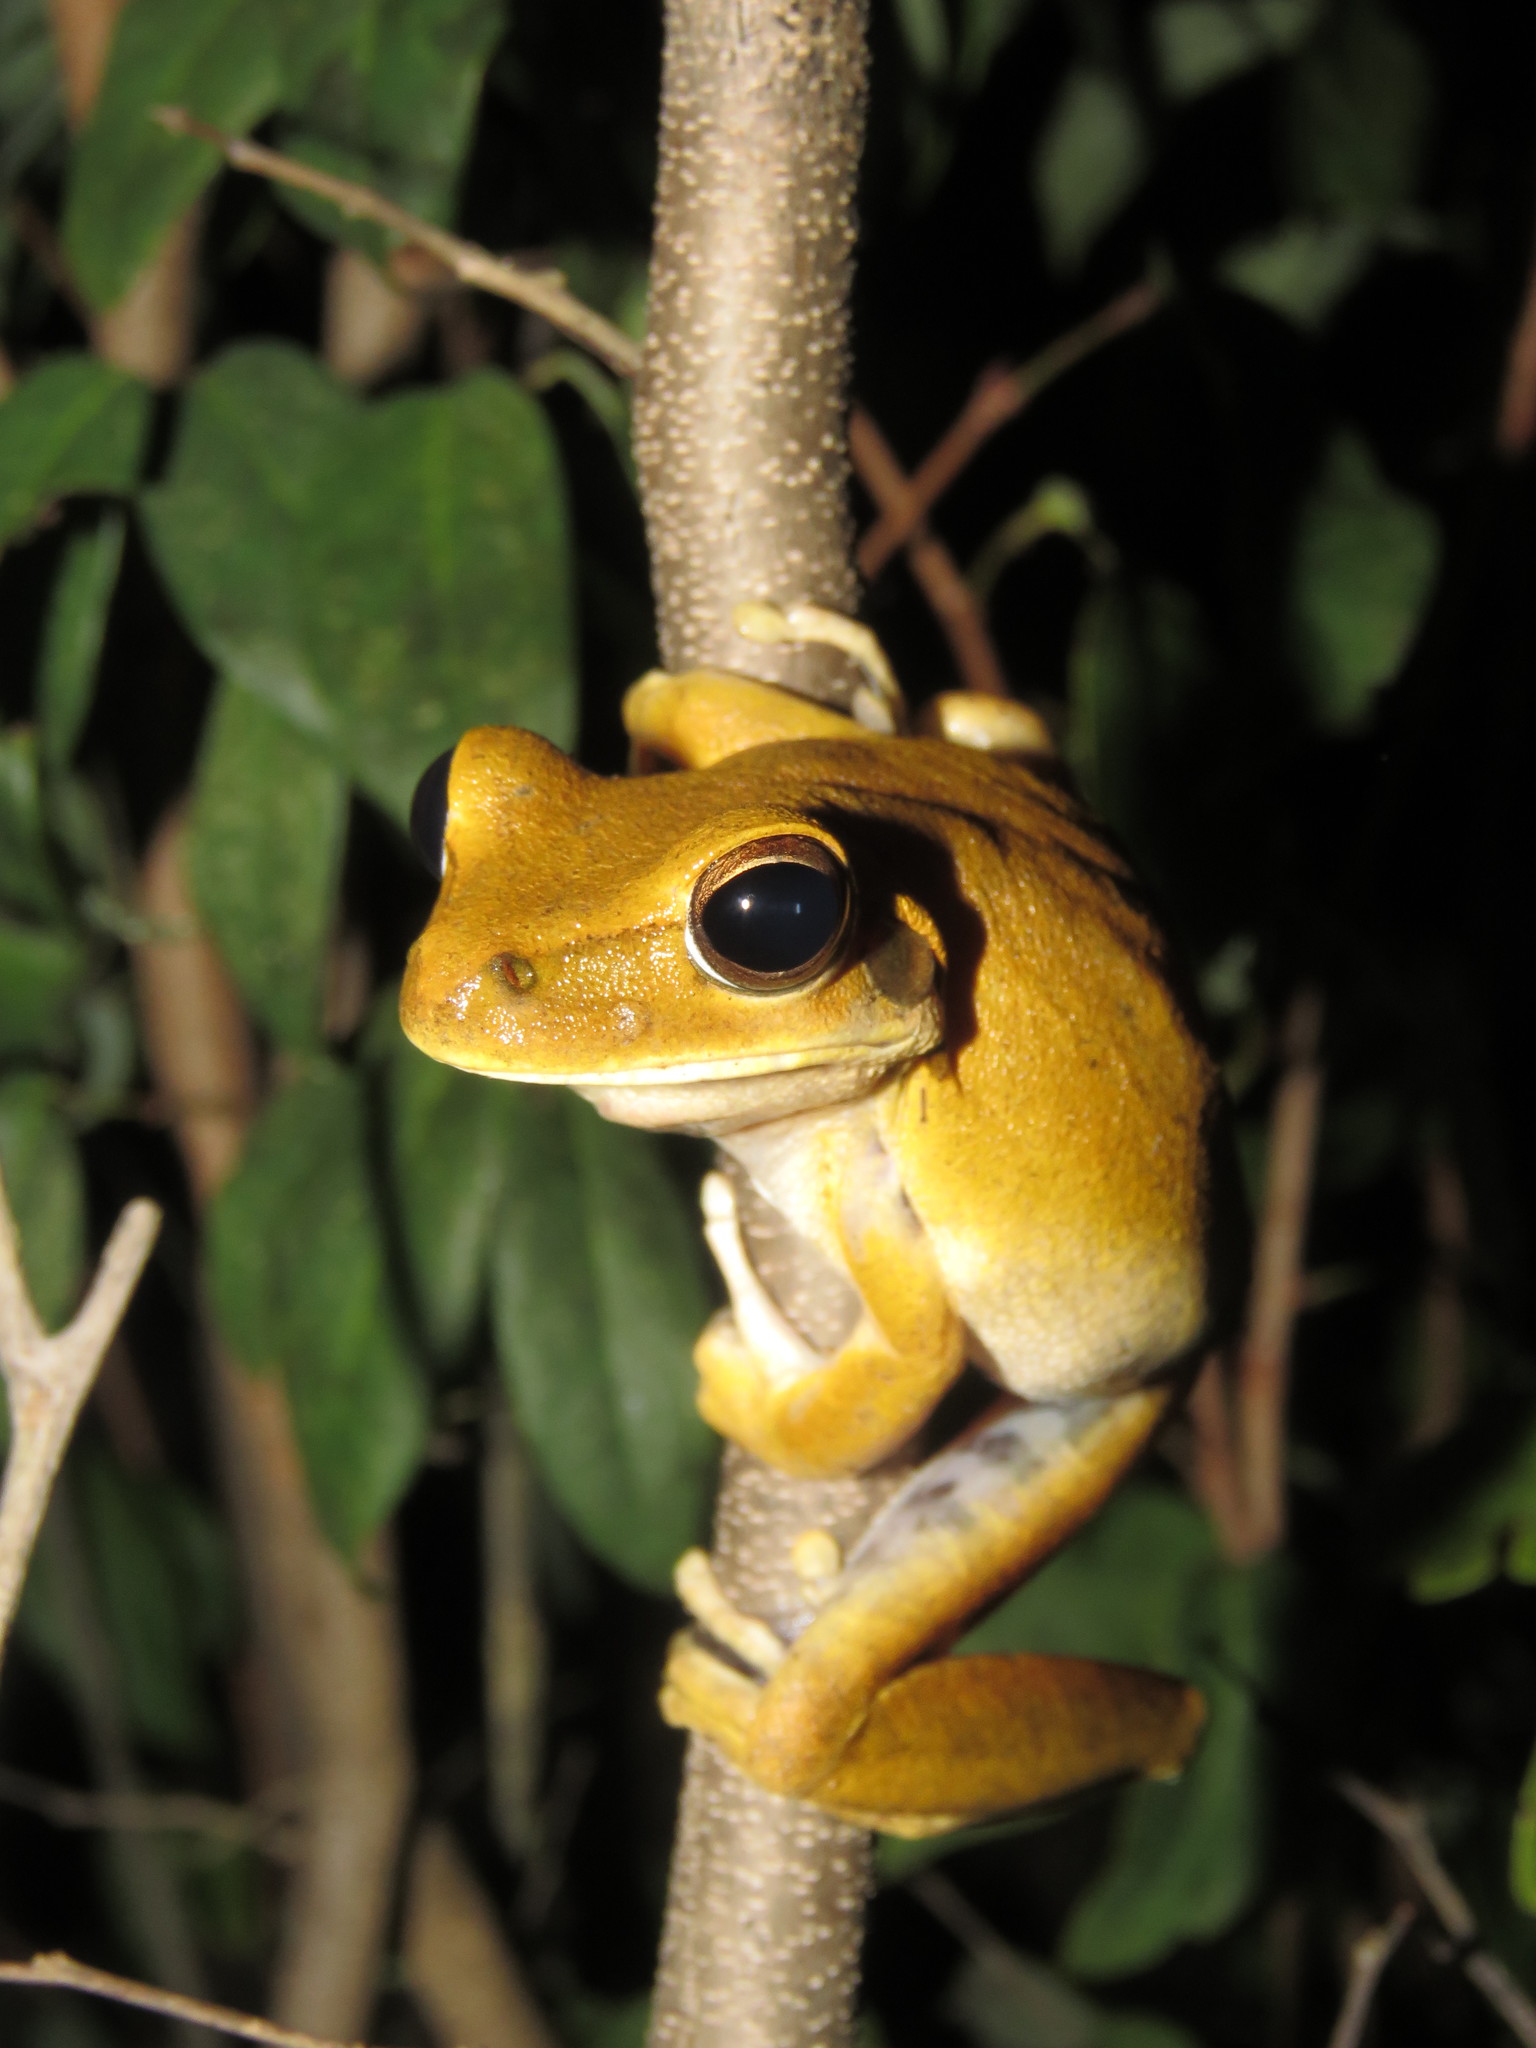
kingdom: Animalia
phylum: Chordata
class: Amphibia
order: Anura
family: Hylidae
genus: Boana
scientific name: Boana raniceps
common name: Chaco treefrog
